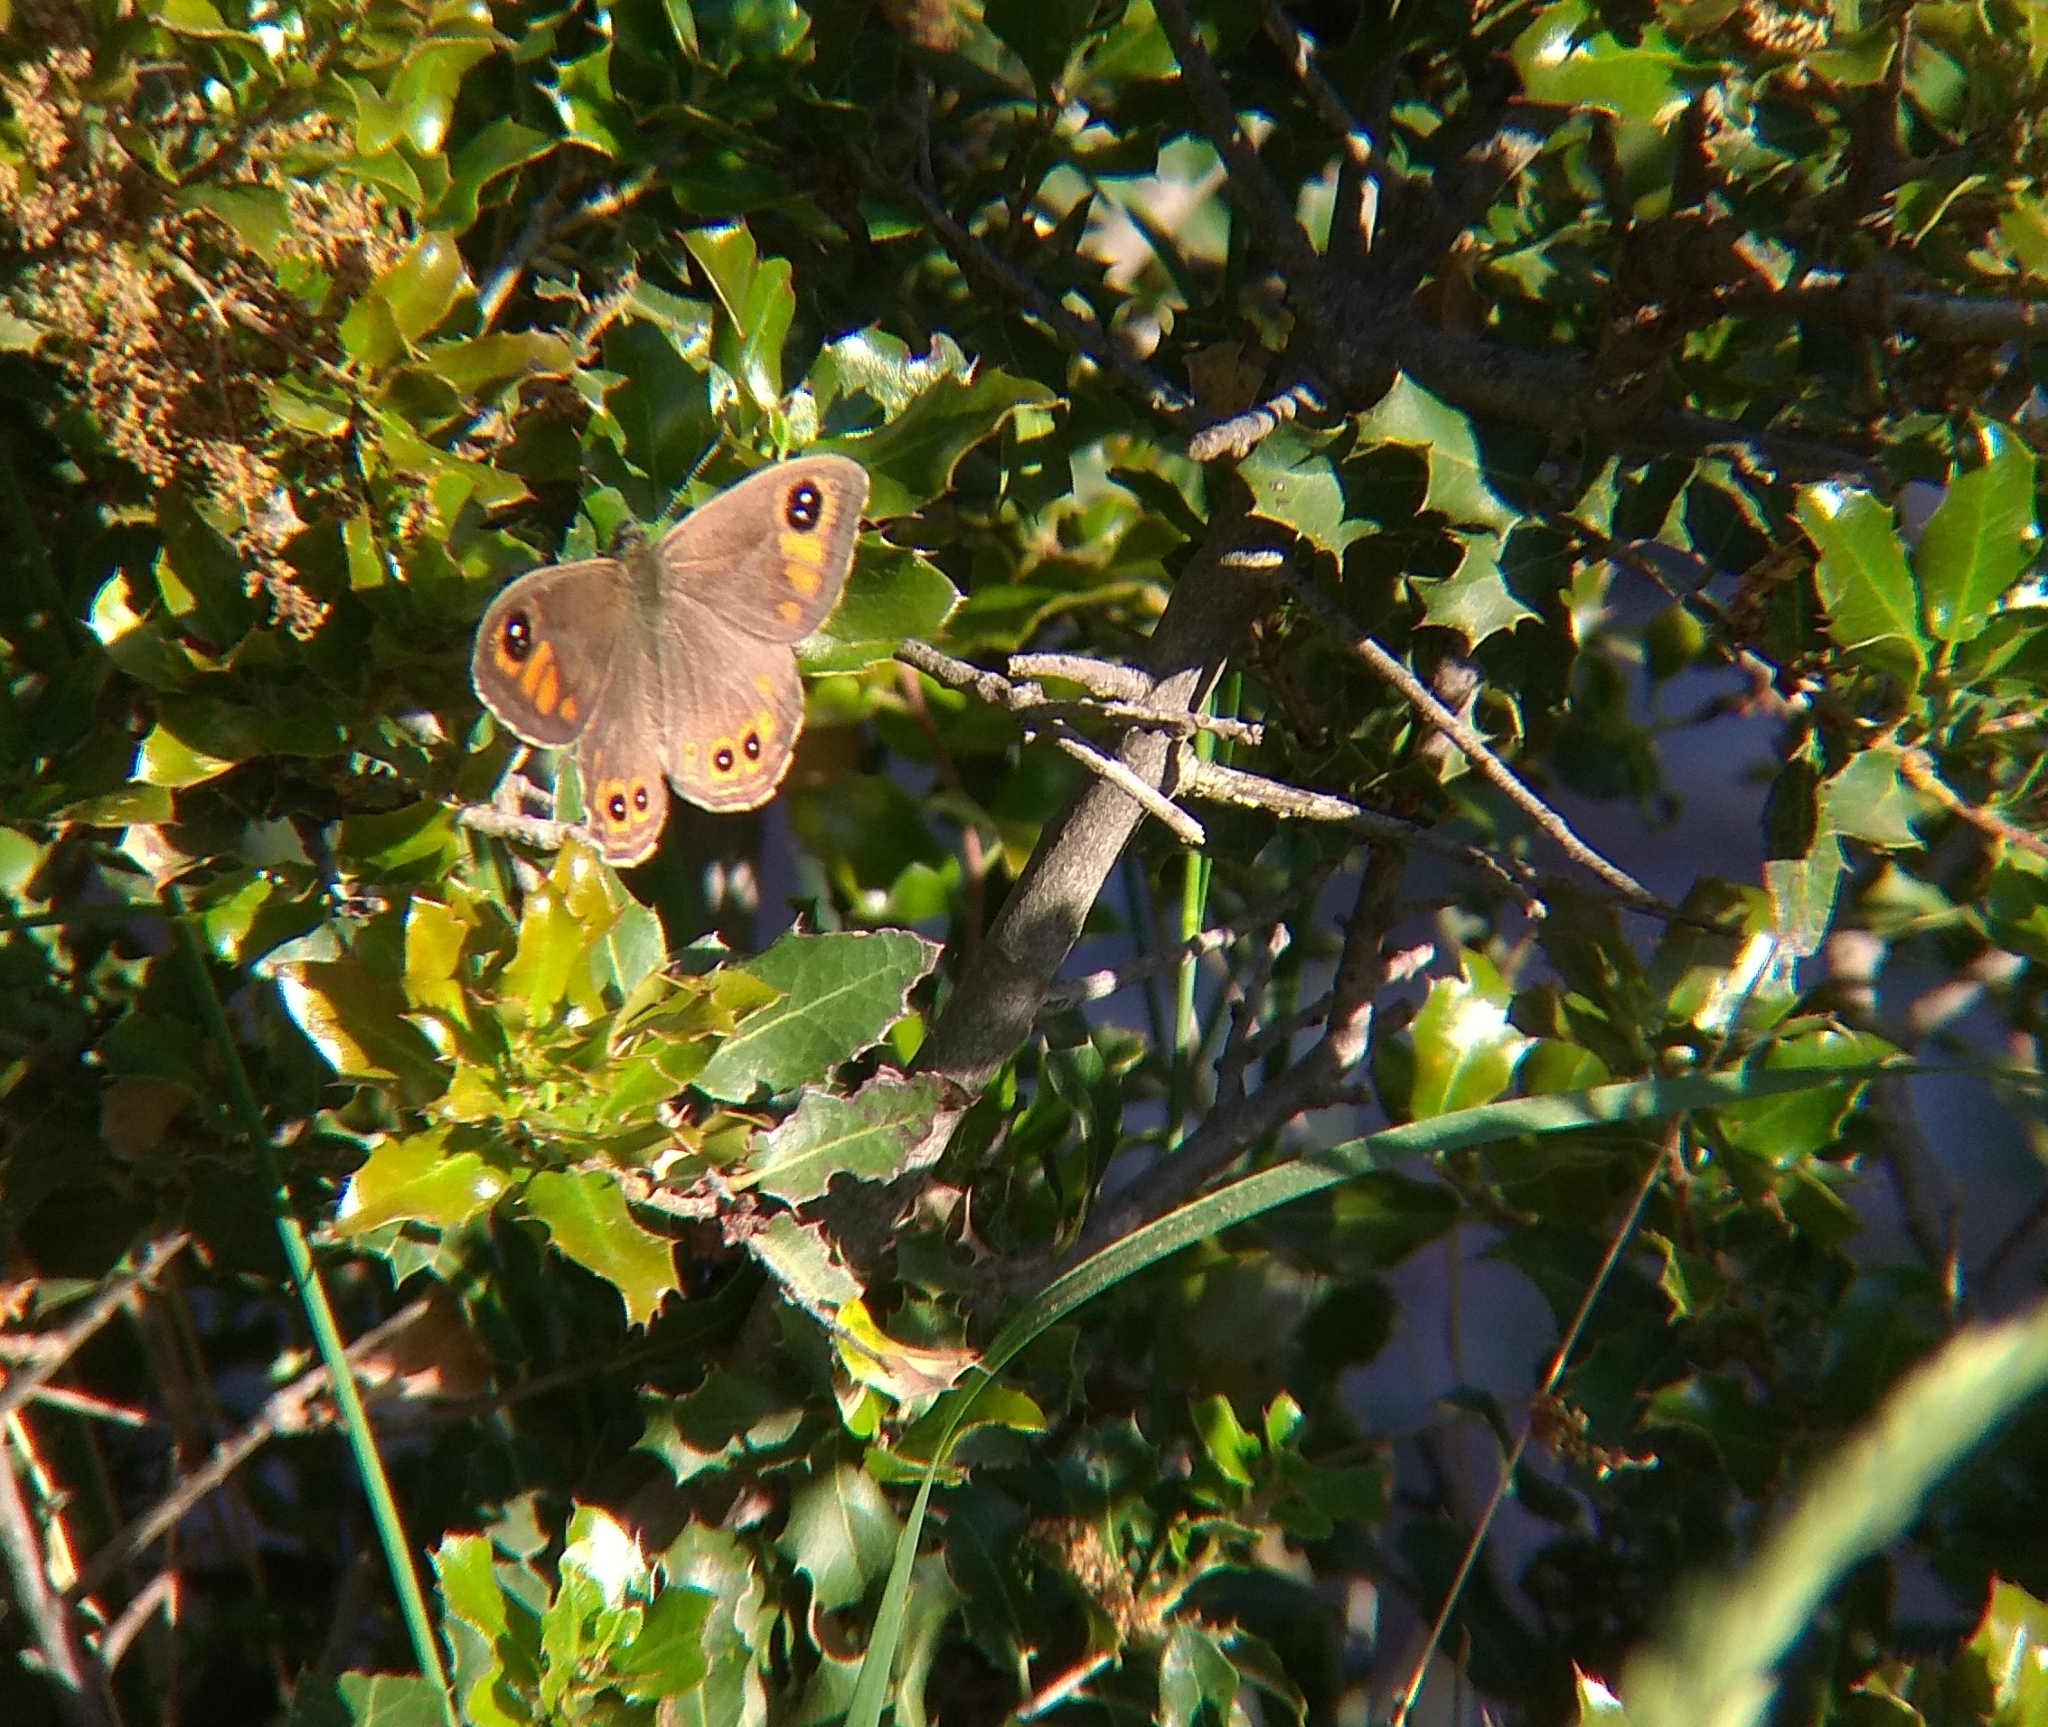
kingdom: Animalia
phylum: Arthropoda
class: Insecta
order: Lepidoptera
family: Nymphalidae
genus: Pararge
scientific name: Pararge Lasiommata maera
